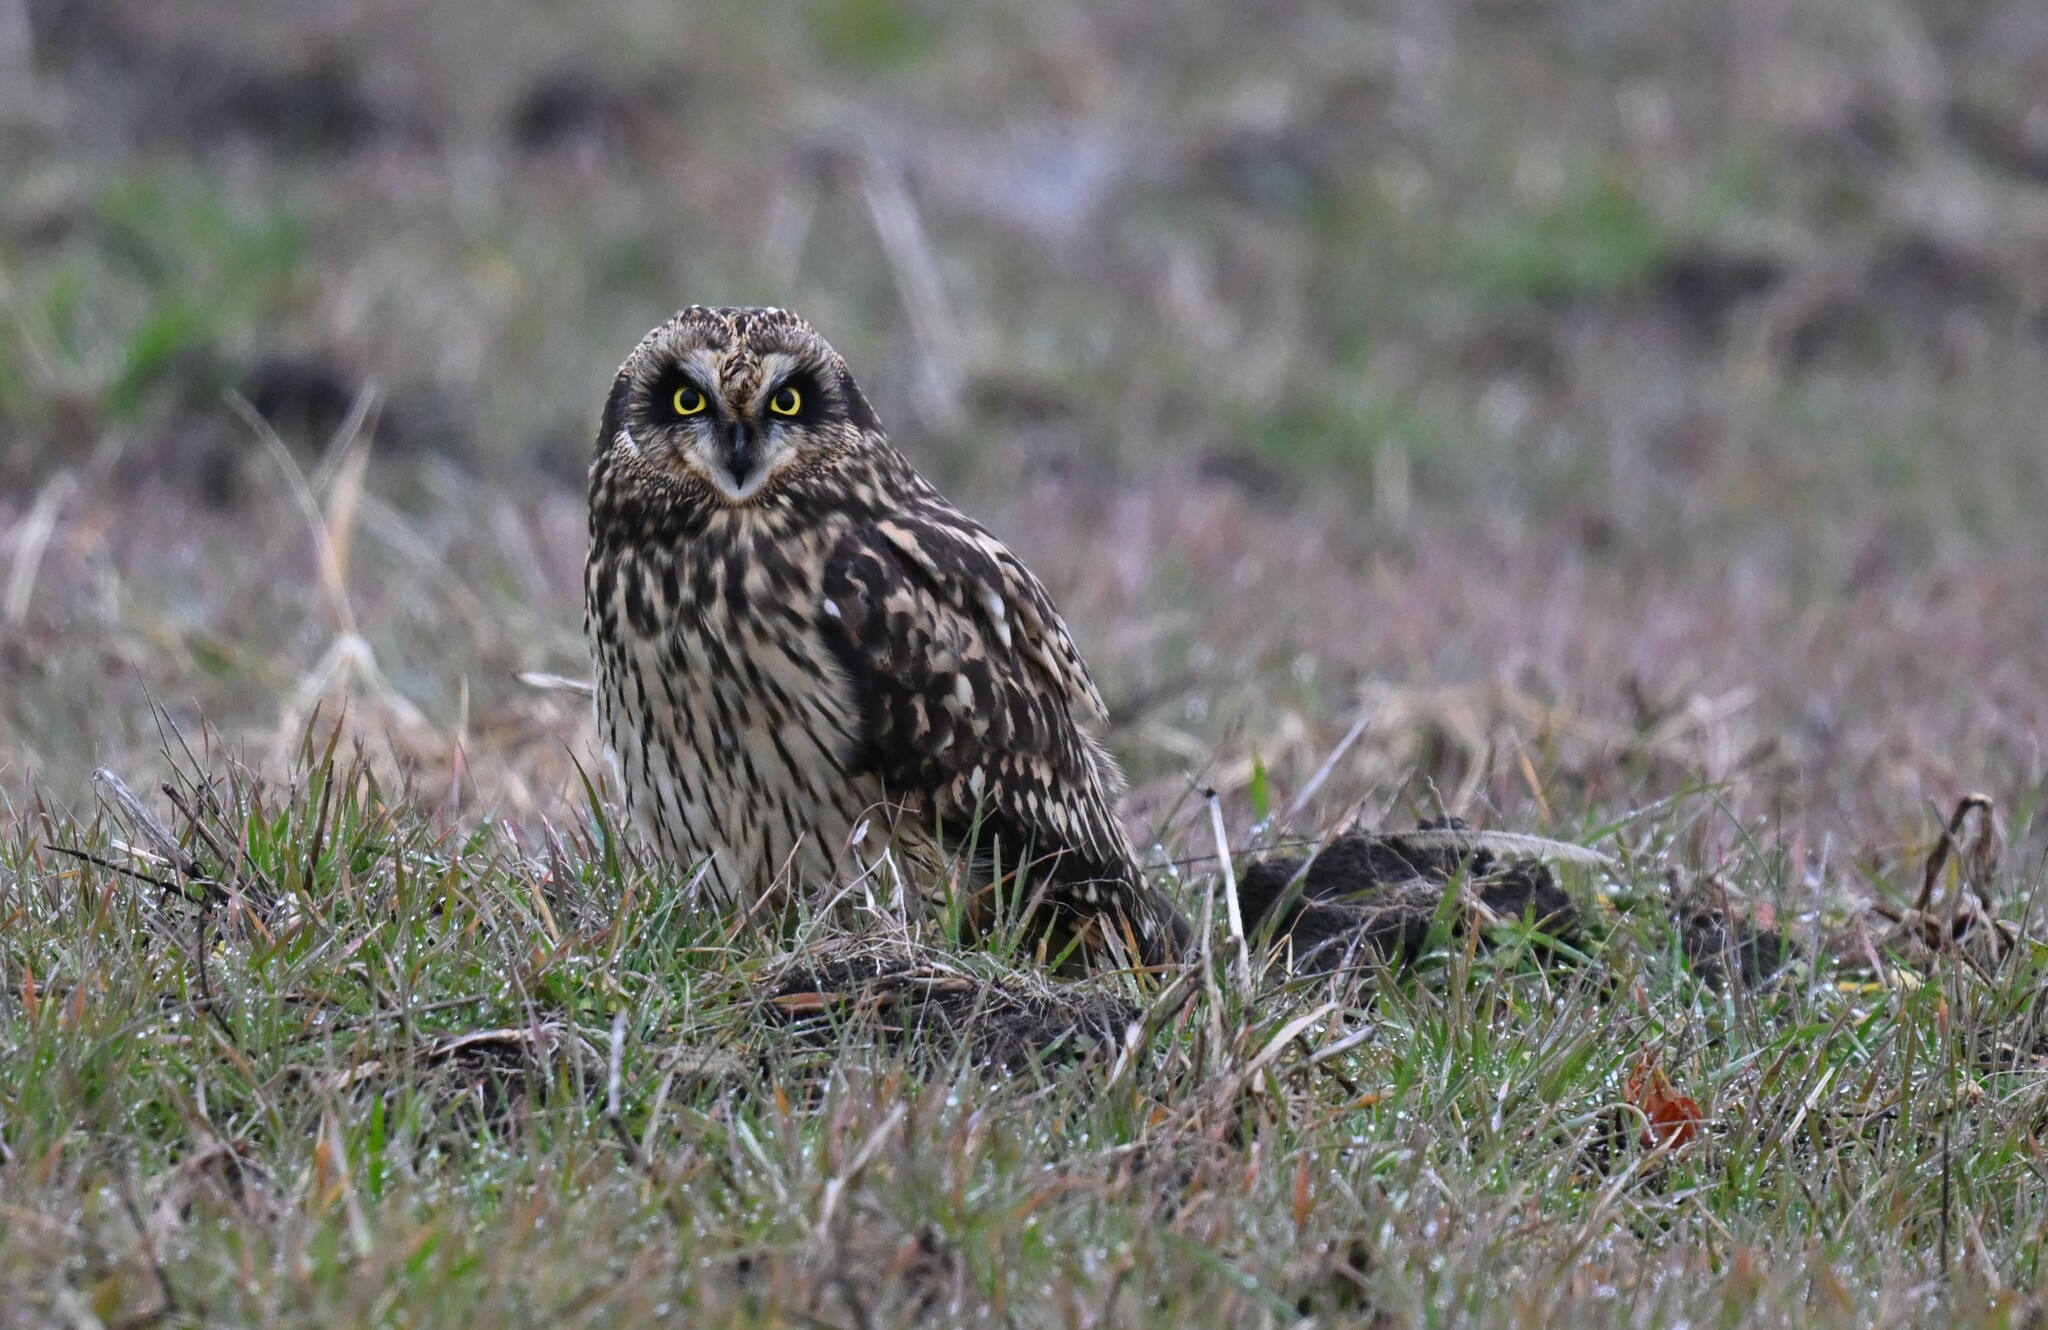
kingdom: Animalia
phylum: Chordata
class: Aves
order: Strigiformes
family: Strigidae
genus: Asio
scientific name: Asio flammeus
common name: Short-eared owl
